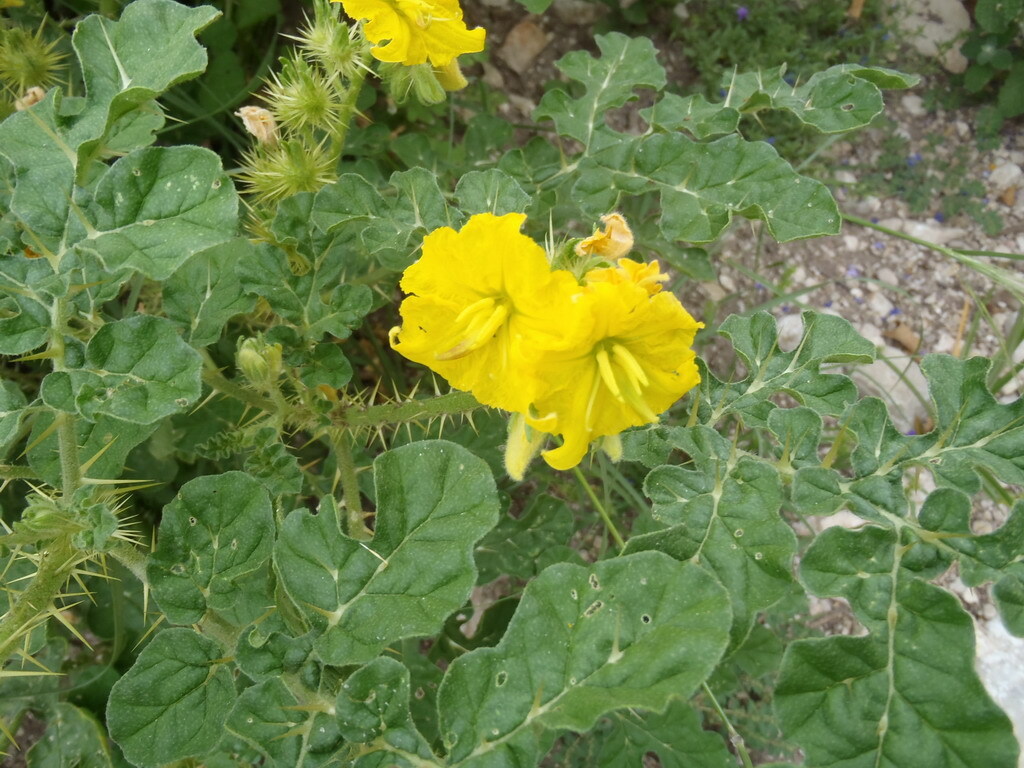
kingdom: Plantae
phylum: Tracheophyta
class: Magnoliopsida
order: Solanales
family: Solanaceae
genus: Solanum
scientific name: Solanum angustifolium
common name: Buffalobur nightshade
